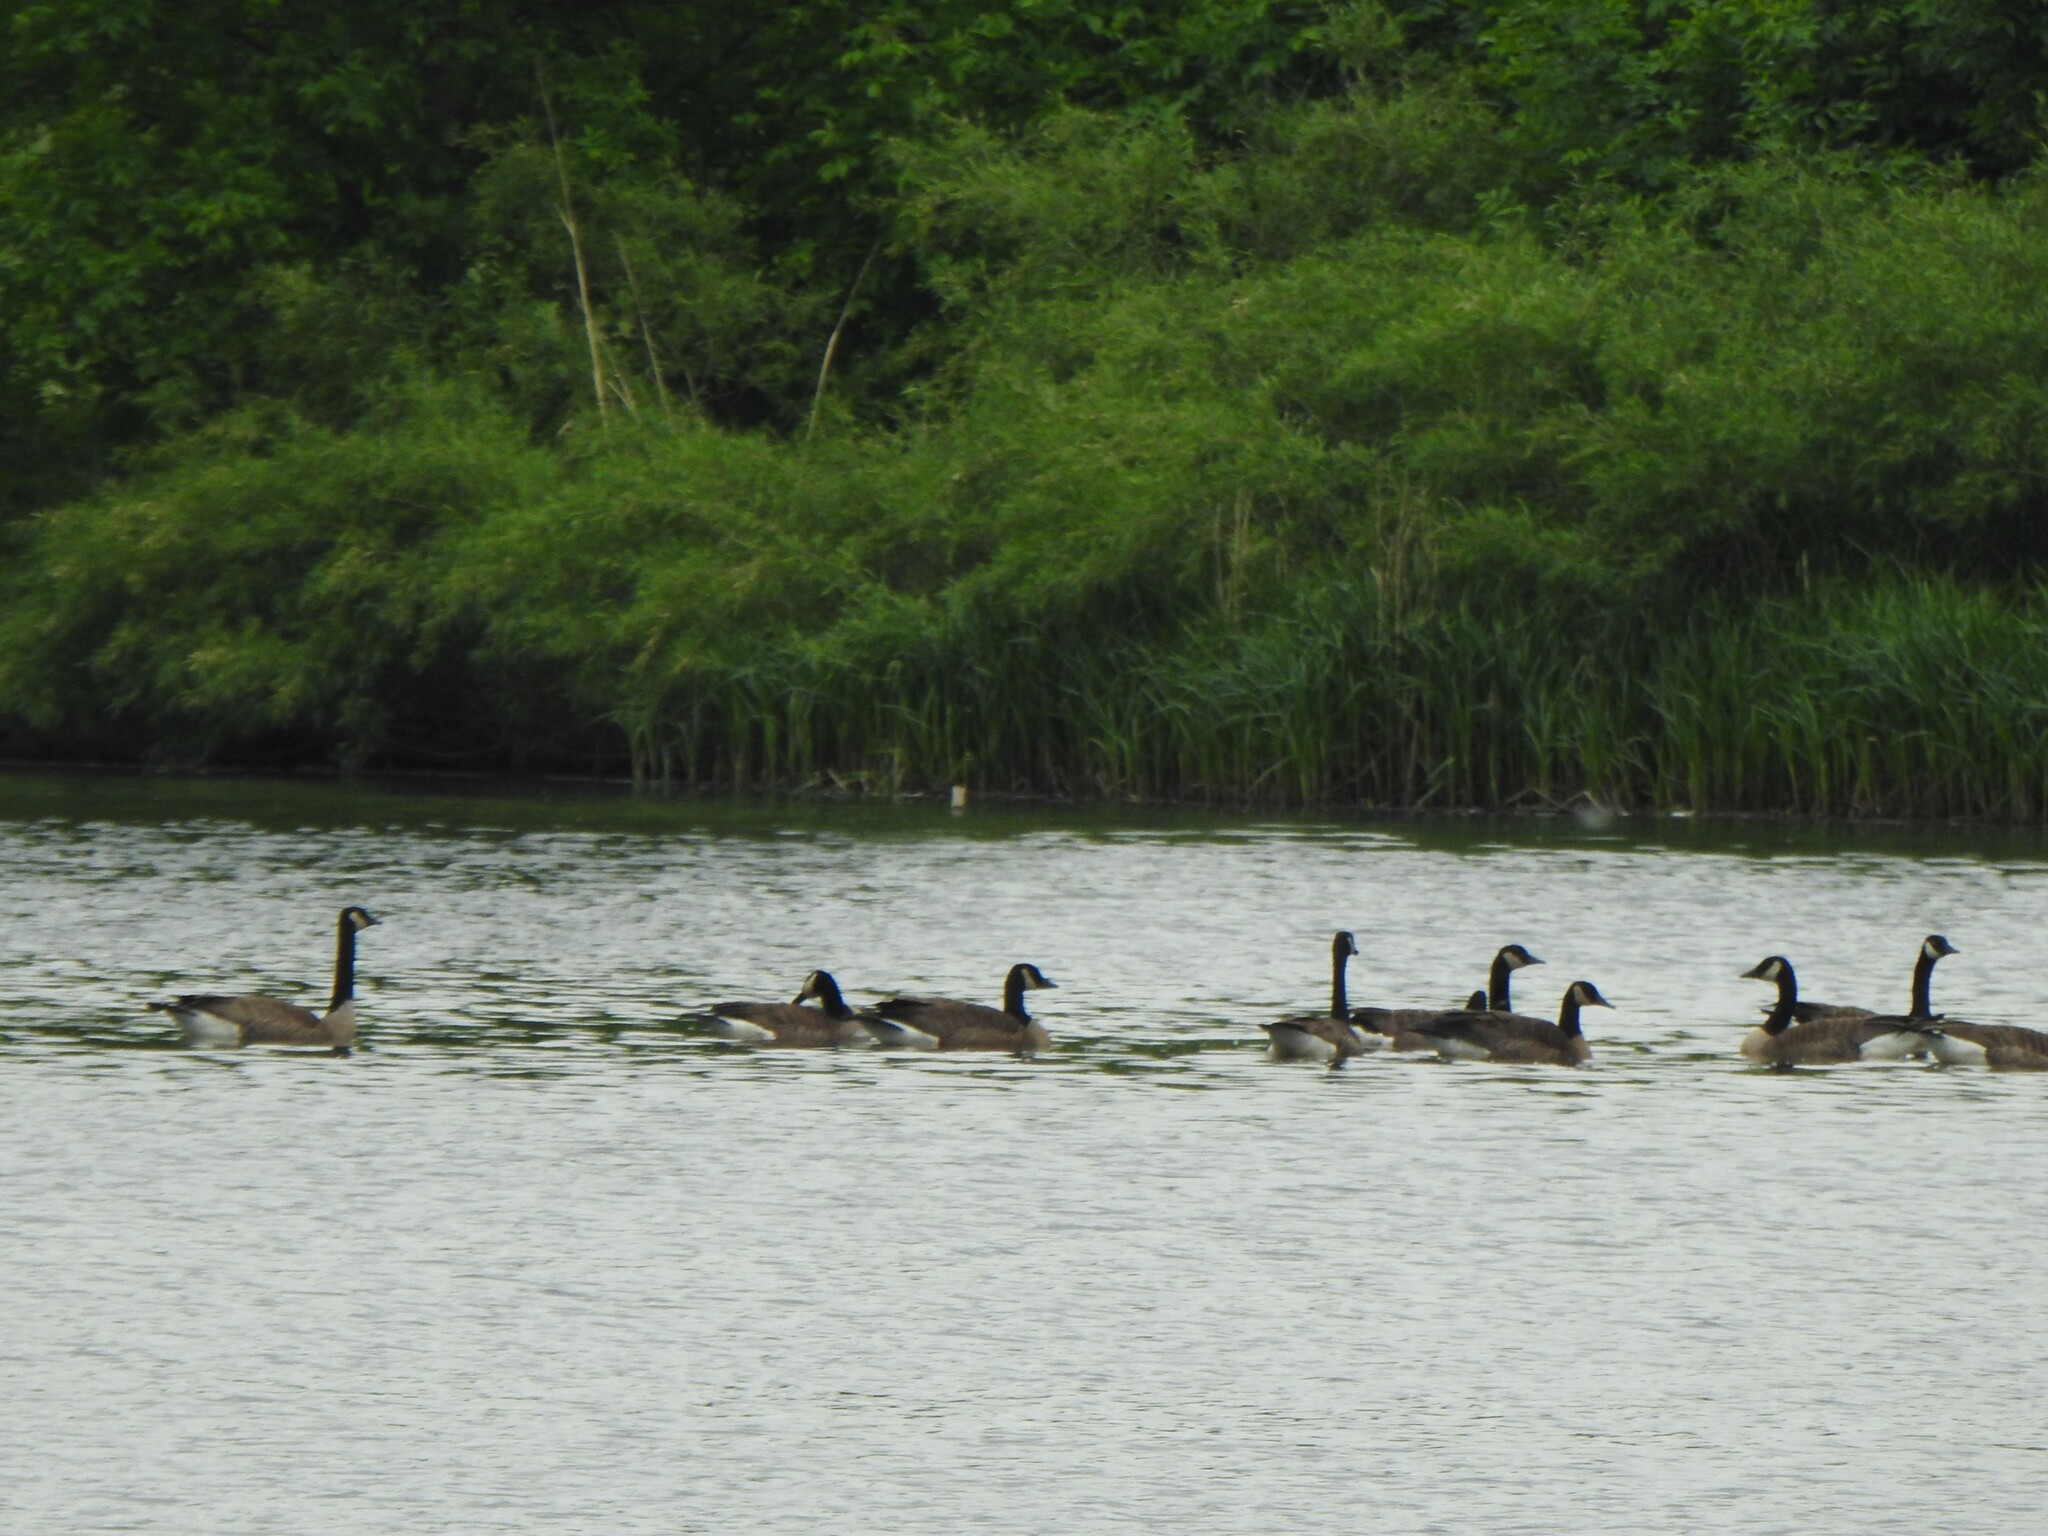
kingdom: Animalia
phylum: Chordata
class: Aves
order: Anseriformes
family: Anatidae
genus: Branta
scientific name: Branta canadensis
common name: Canada goose
